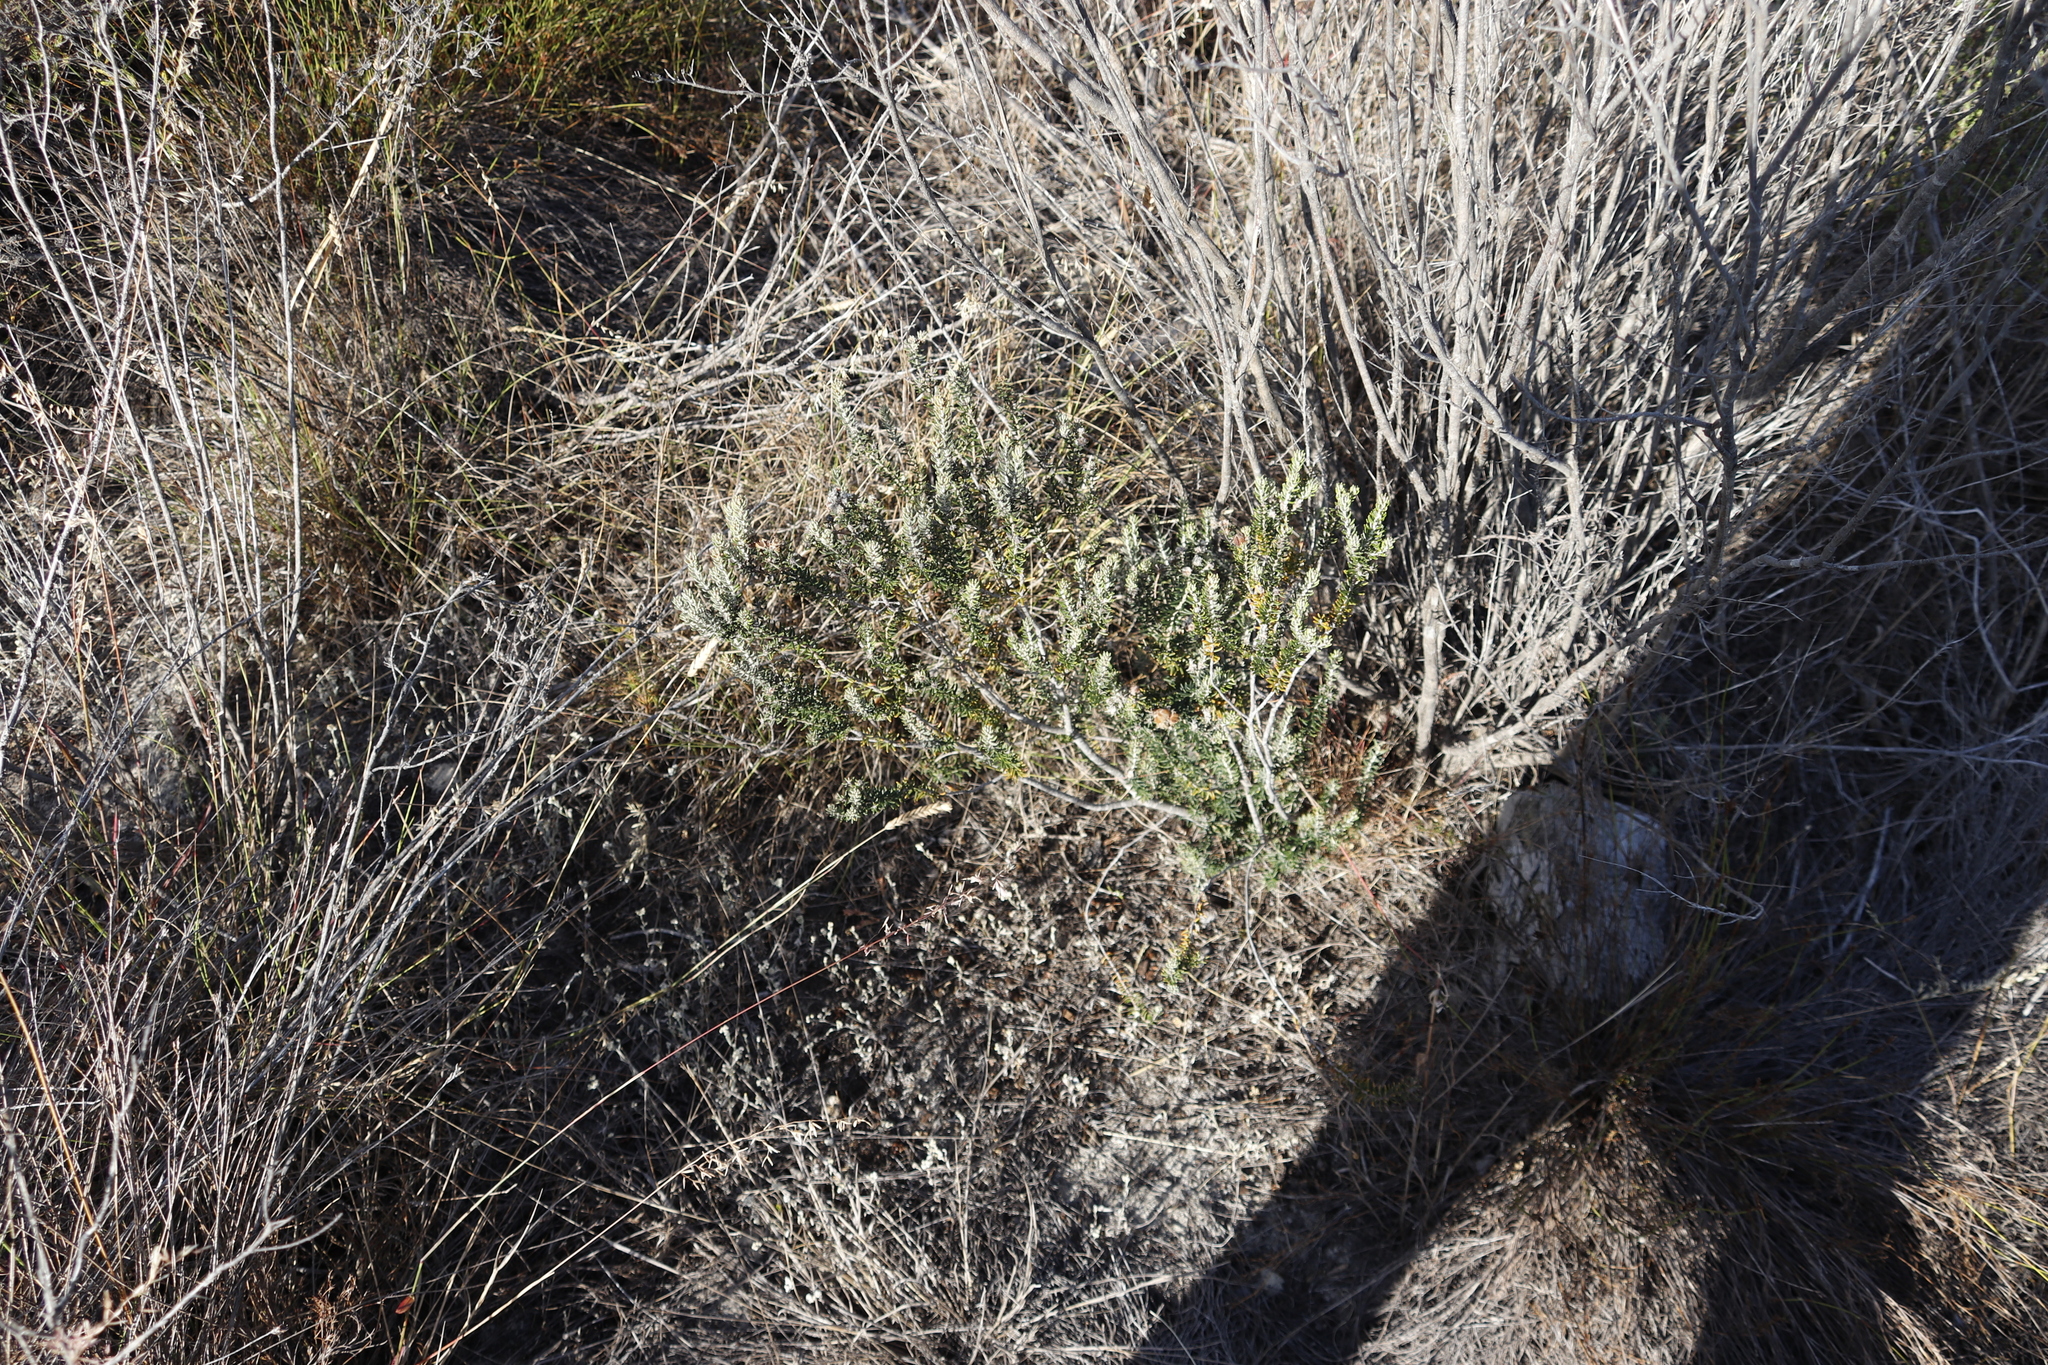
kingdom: Plantae
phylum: Tracheophyta
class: Magnoliopsida
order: Rosales
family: Rhamnaceae
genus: Trichocephalus
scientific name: Trichocephalus stipularis
